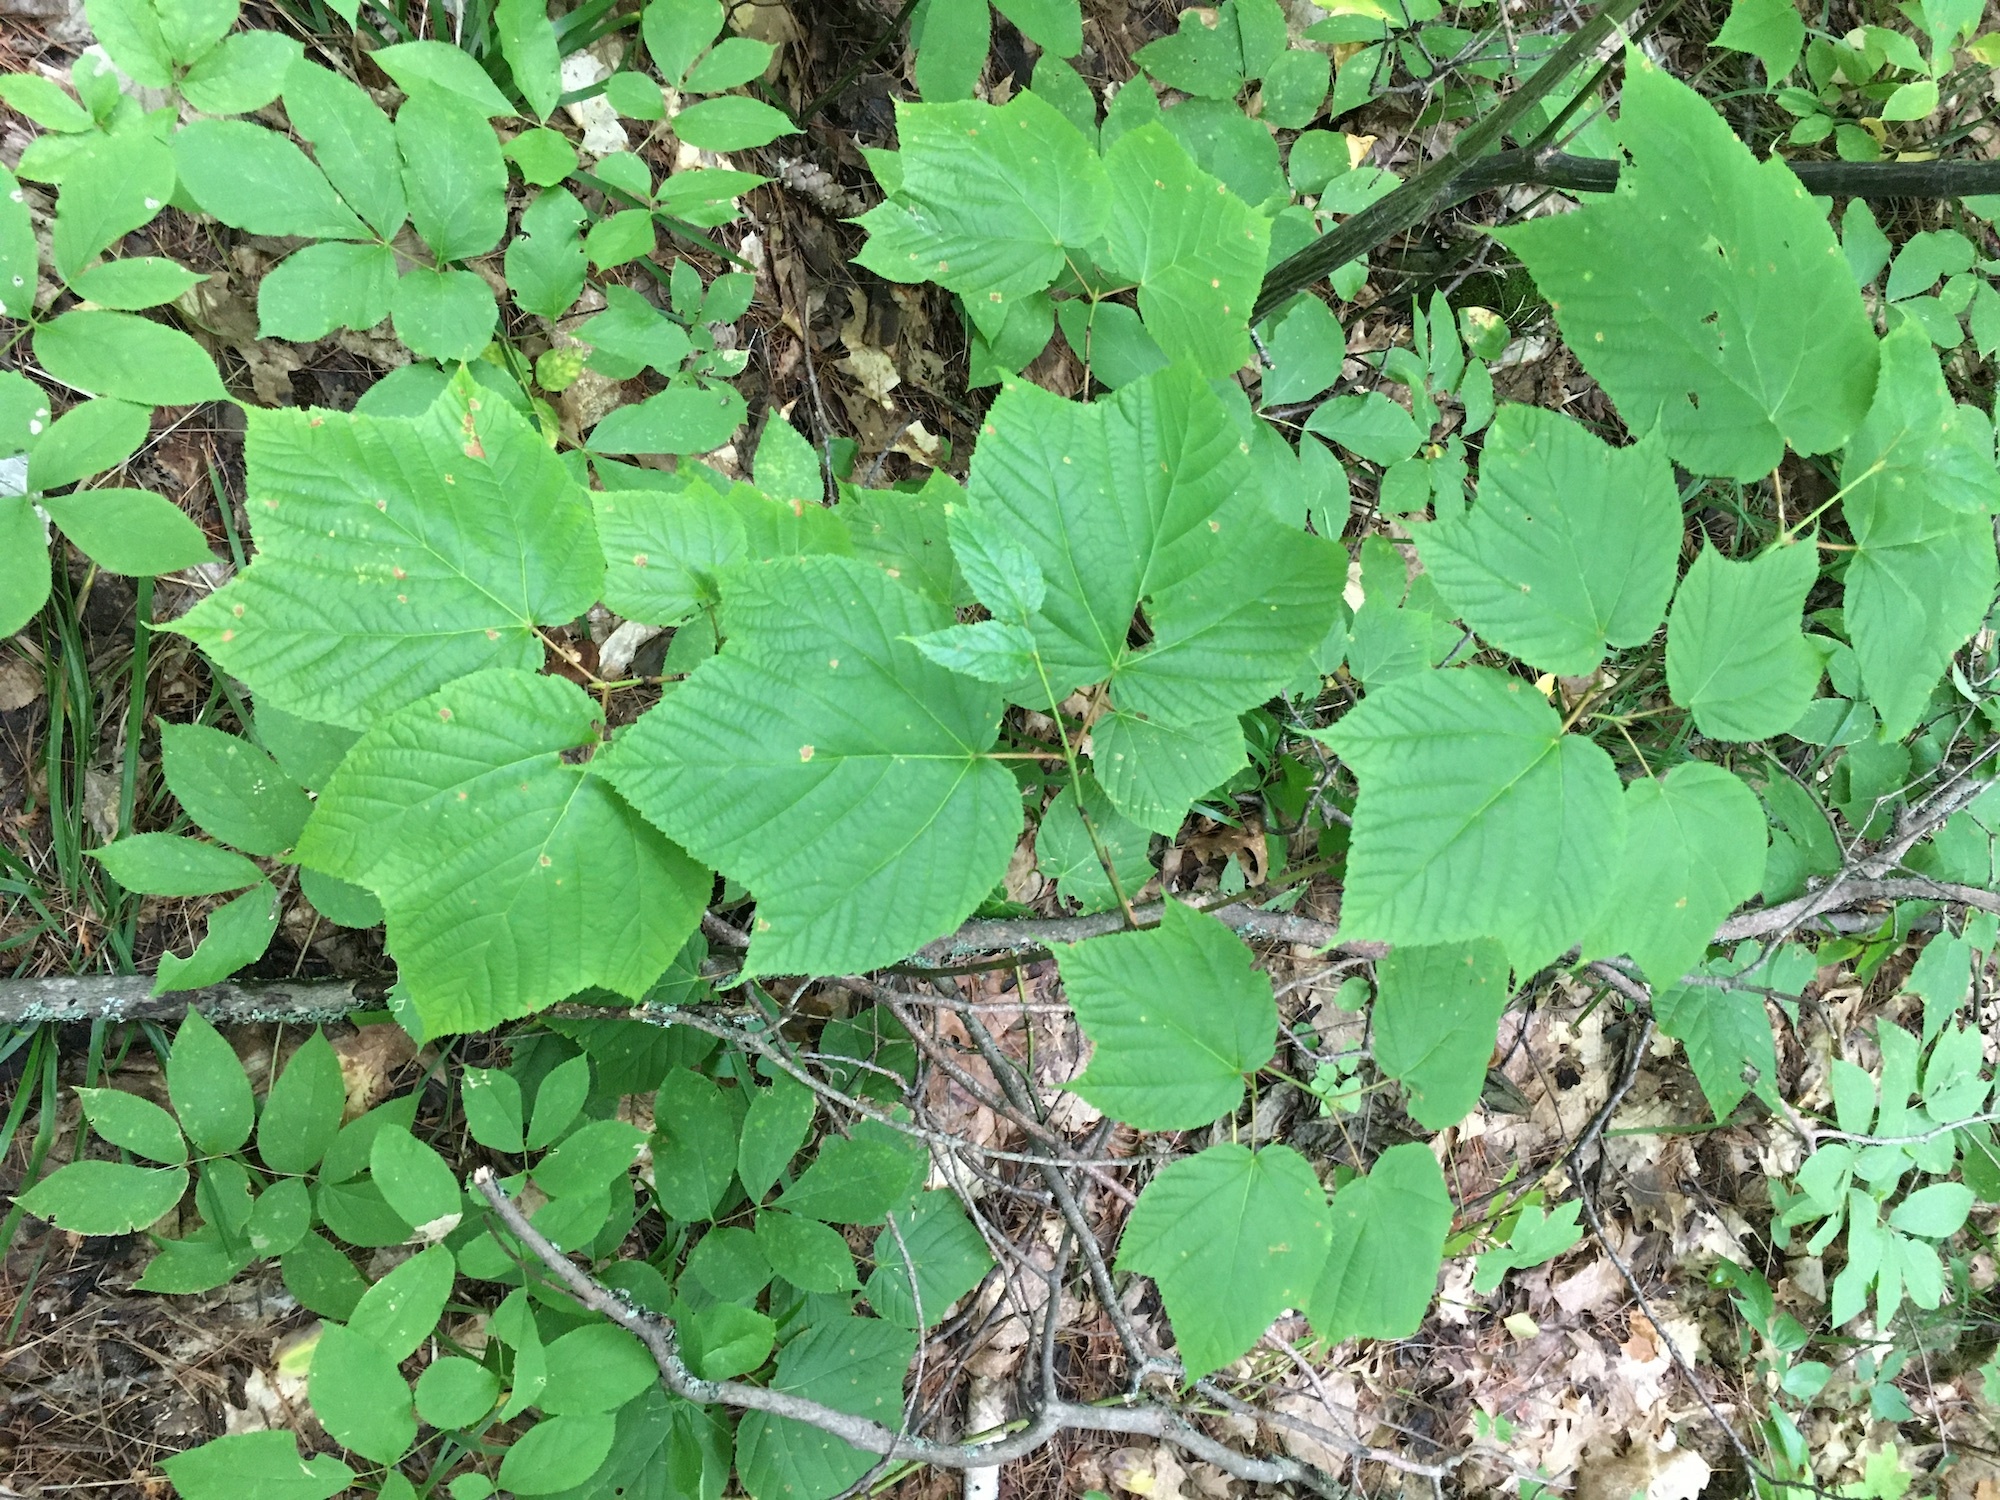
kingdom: Plantae
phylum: Tracheophyta
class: Magnoliopsida
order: Sapindales
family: Sapindaceae
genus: Acer
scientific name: Acer pensylvanicum
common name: Moosewood
